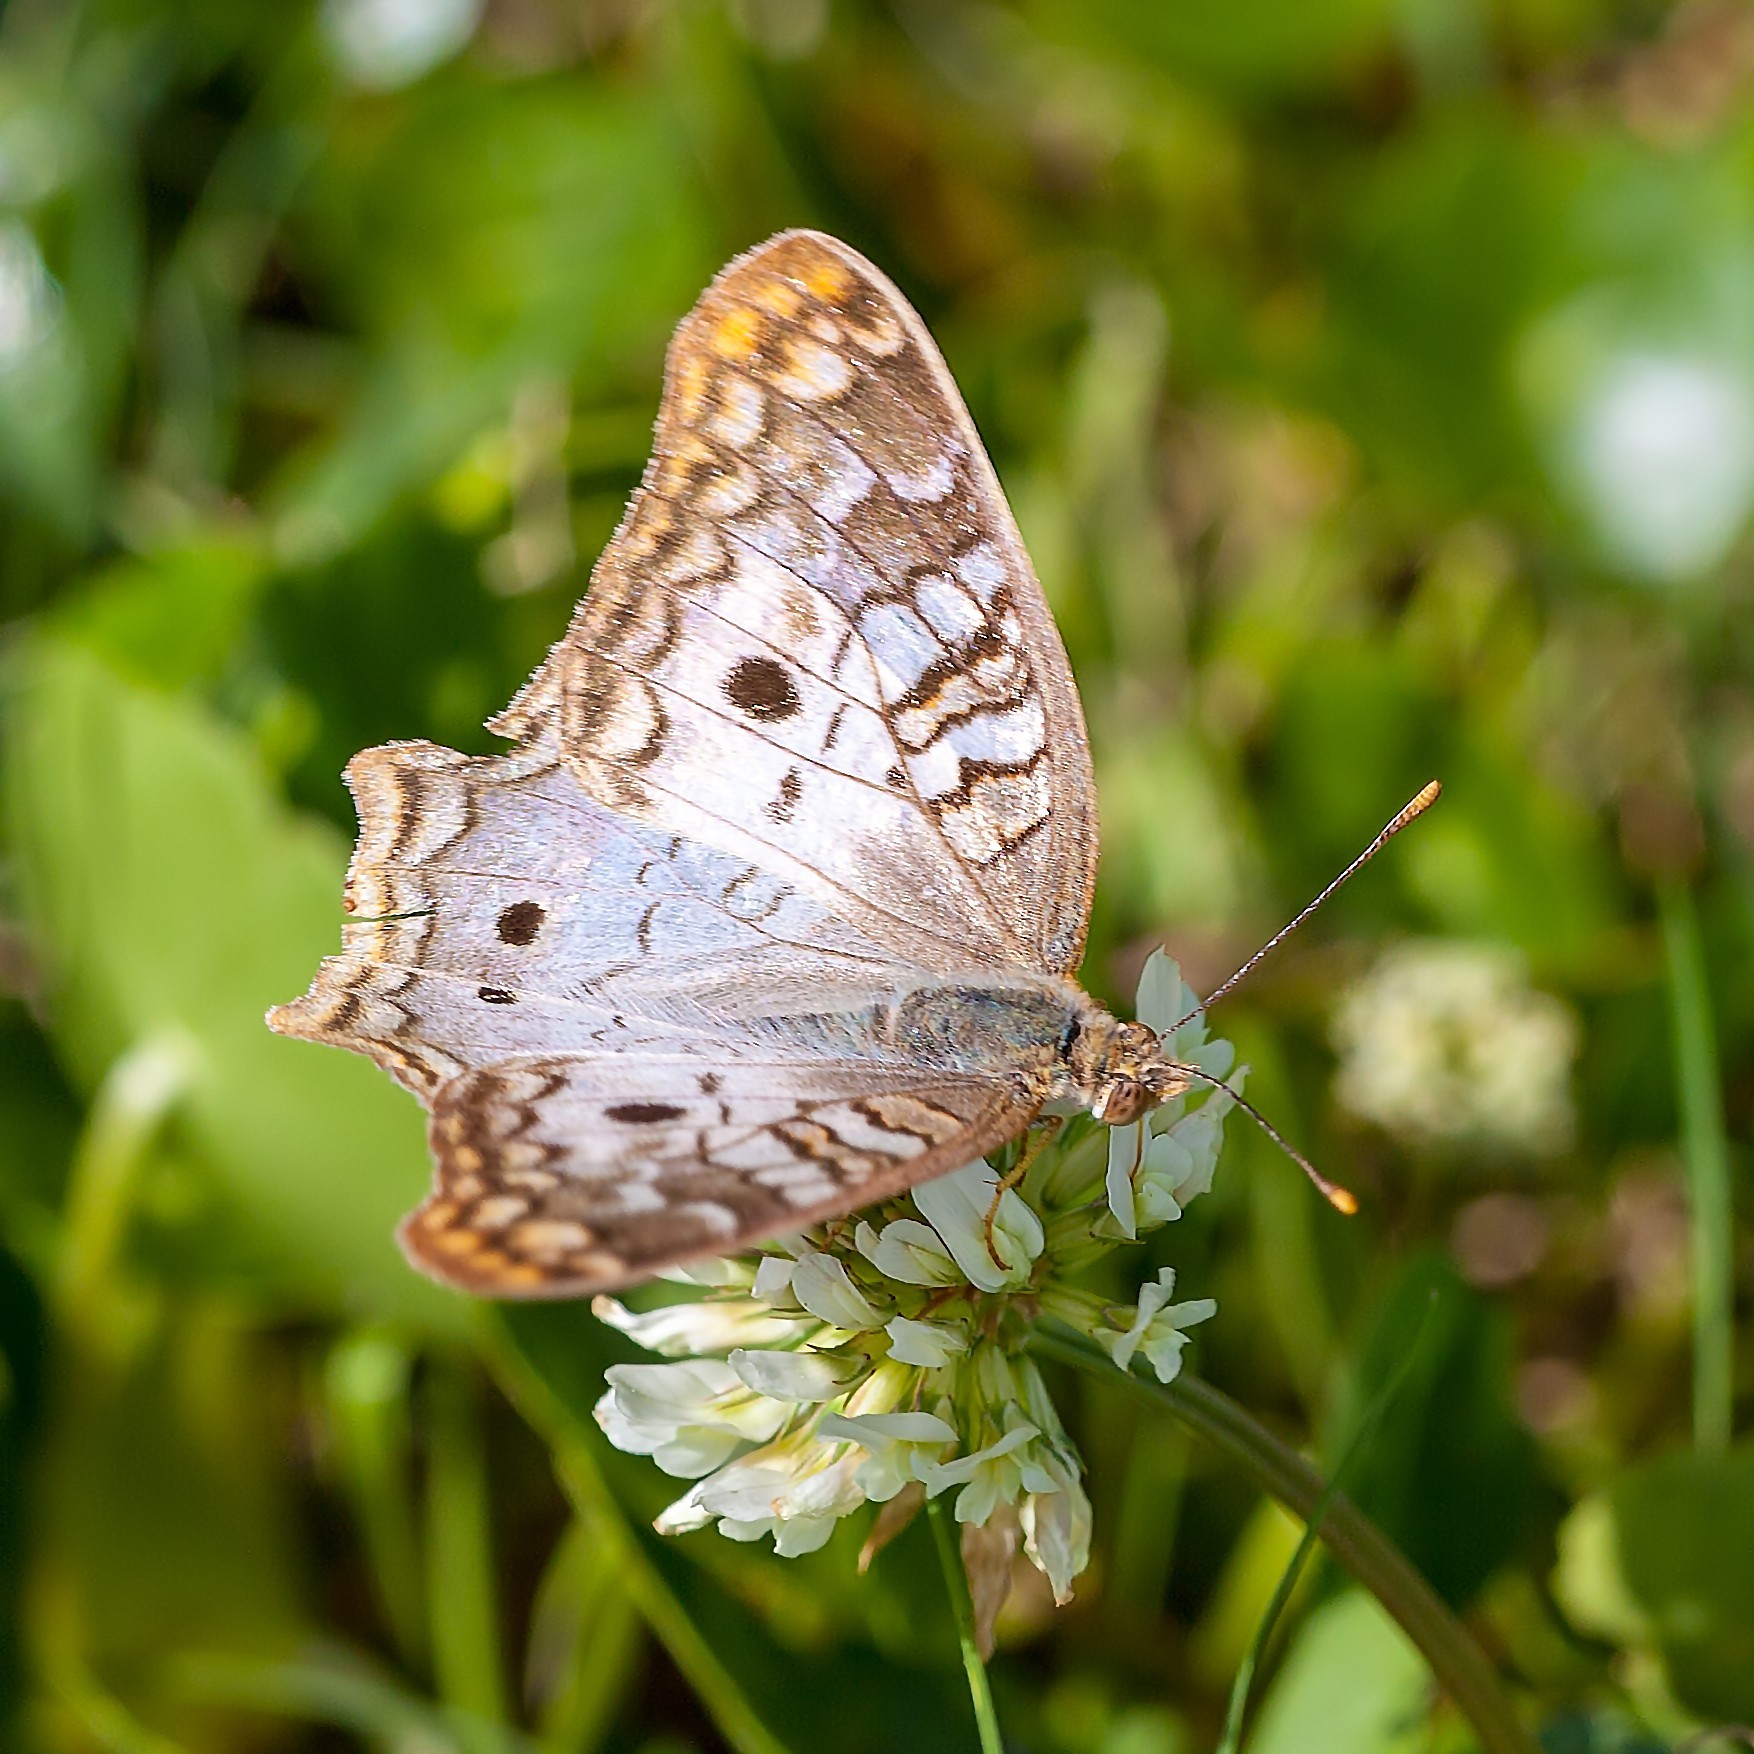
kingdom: Animalia
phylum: Arthropoda
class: Insecta
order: Lepidoptera
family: Nymphalidae
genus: Anartia
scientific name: Anartia jatrophae
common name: White peacock
